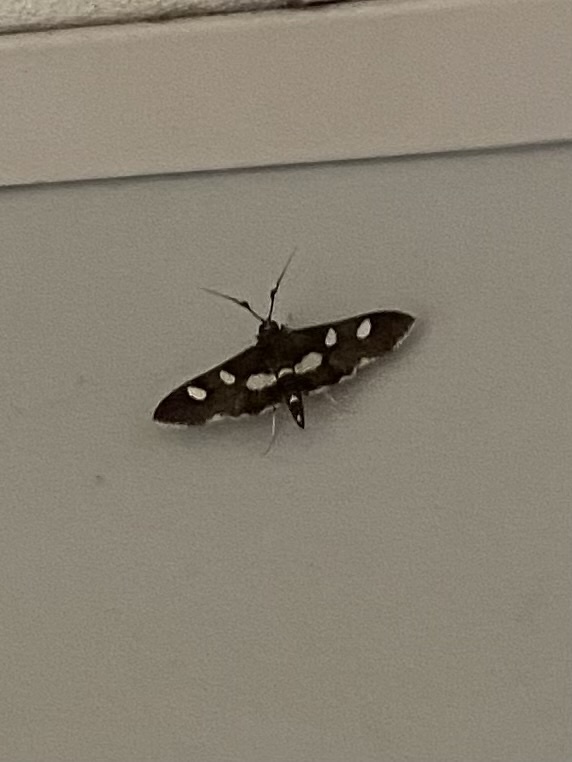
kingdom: Animalia
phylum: Arthropoda
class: Insecta
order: Lepidoptera
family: Crambidae
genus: Desmia
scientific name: Desmia
